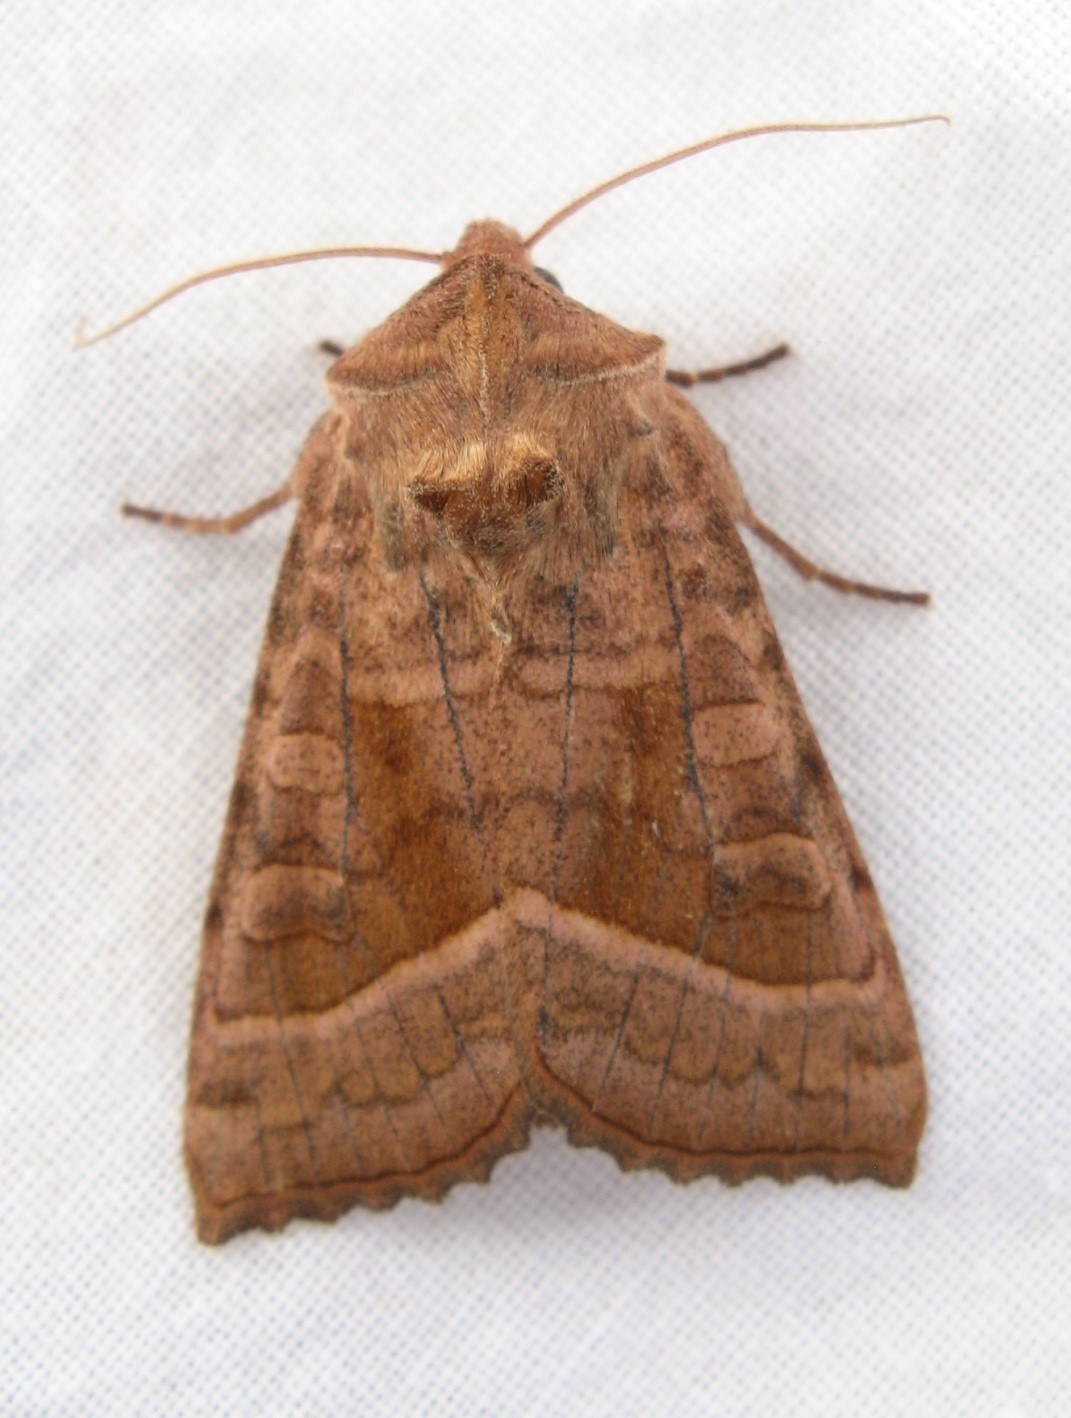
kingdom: Animalia
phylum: Arthropoda
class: Insecta
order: Lepidoptera
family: Noctuidae
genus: Hydraecia
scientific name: Hydraecia immanis
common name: Hop vine borer moth
